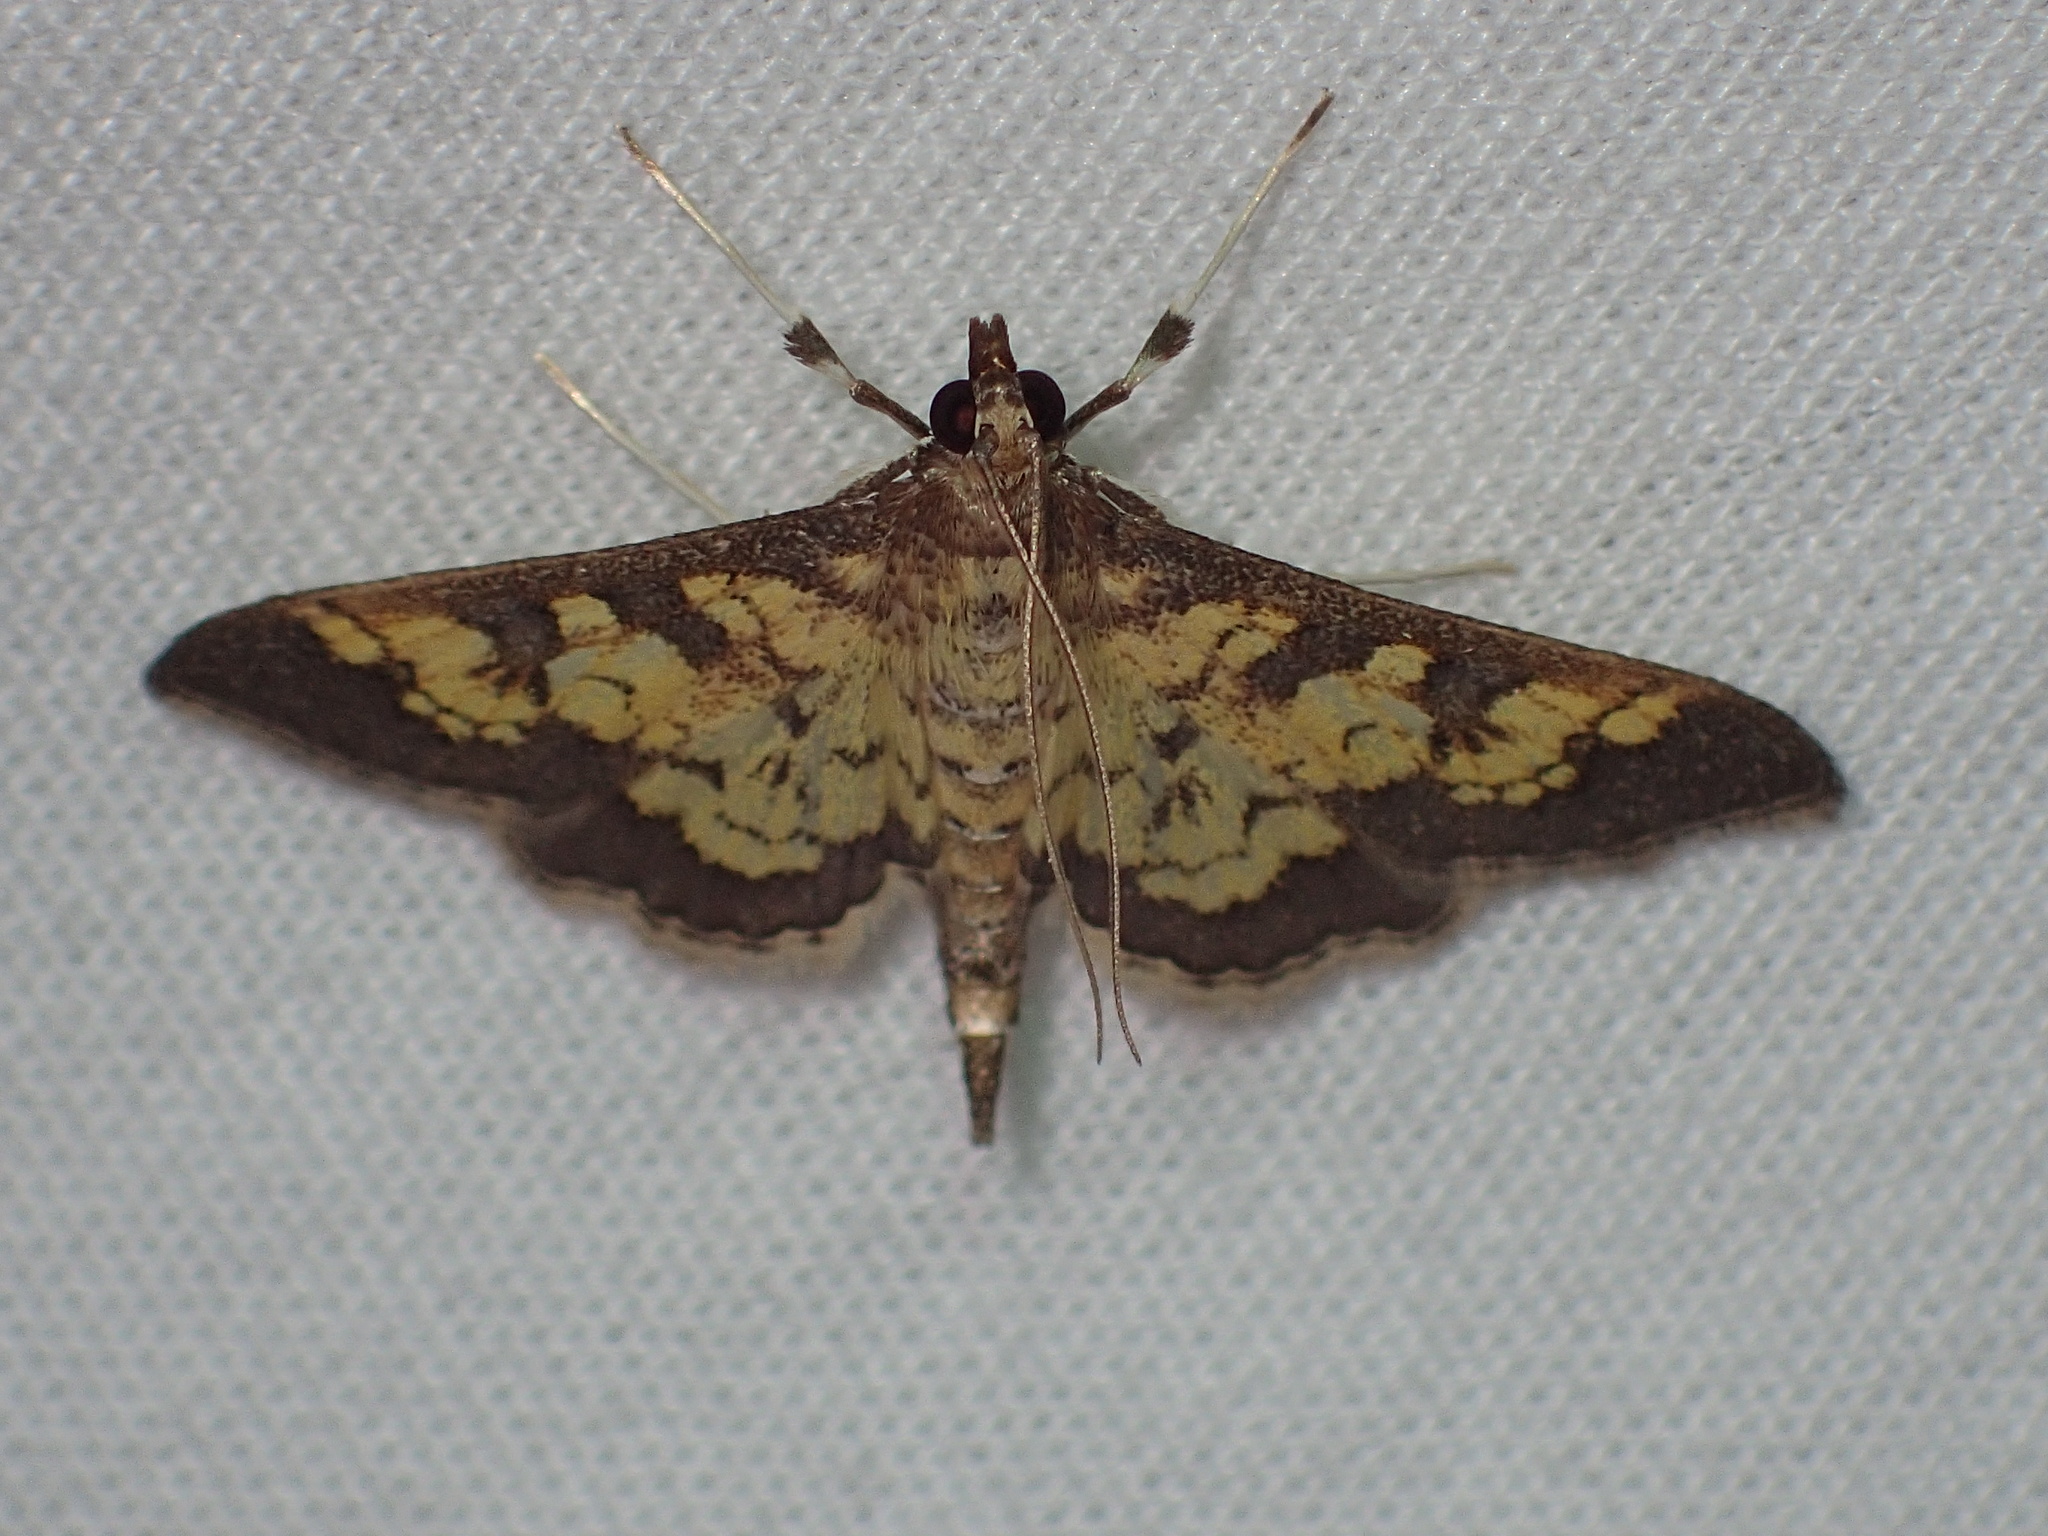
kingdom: Animalia
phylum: Arthropoda
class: Insecta
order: Lepidoptera
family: Crambidae
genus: Epipagis
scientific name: Epipagis adipaloides
